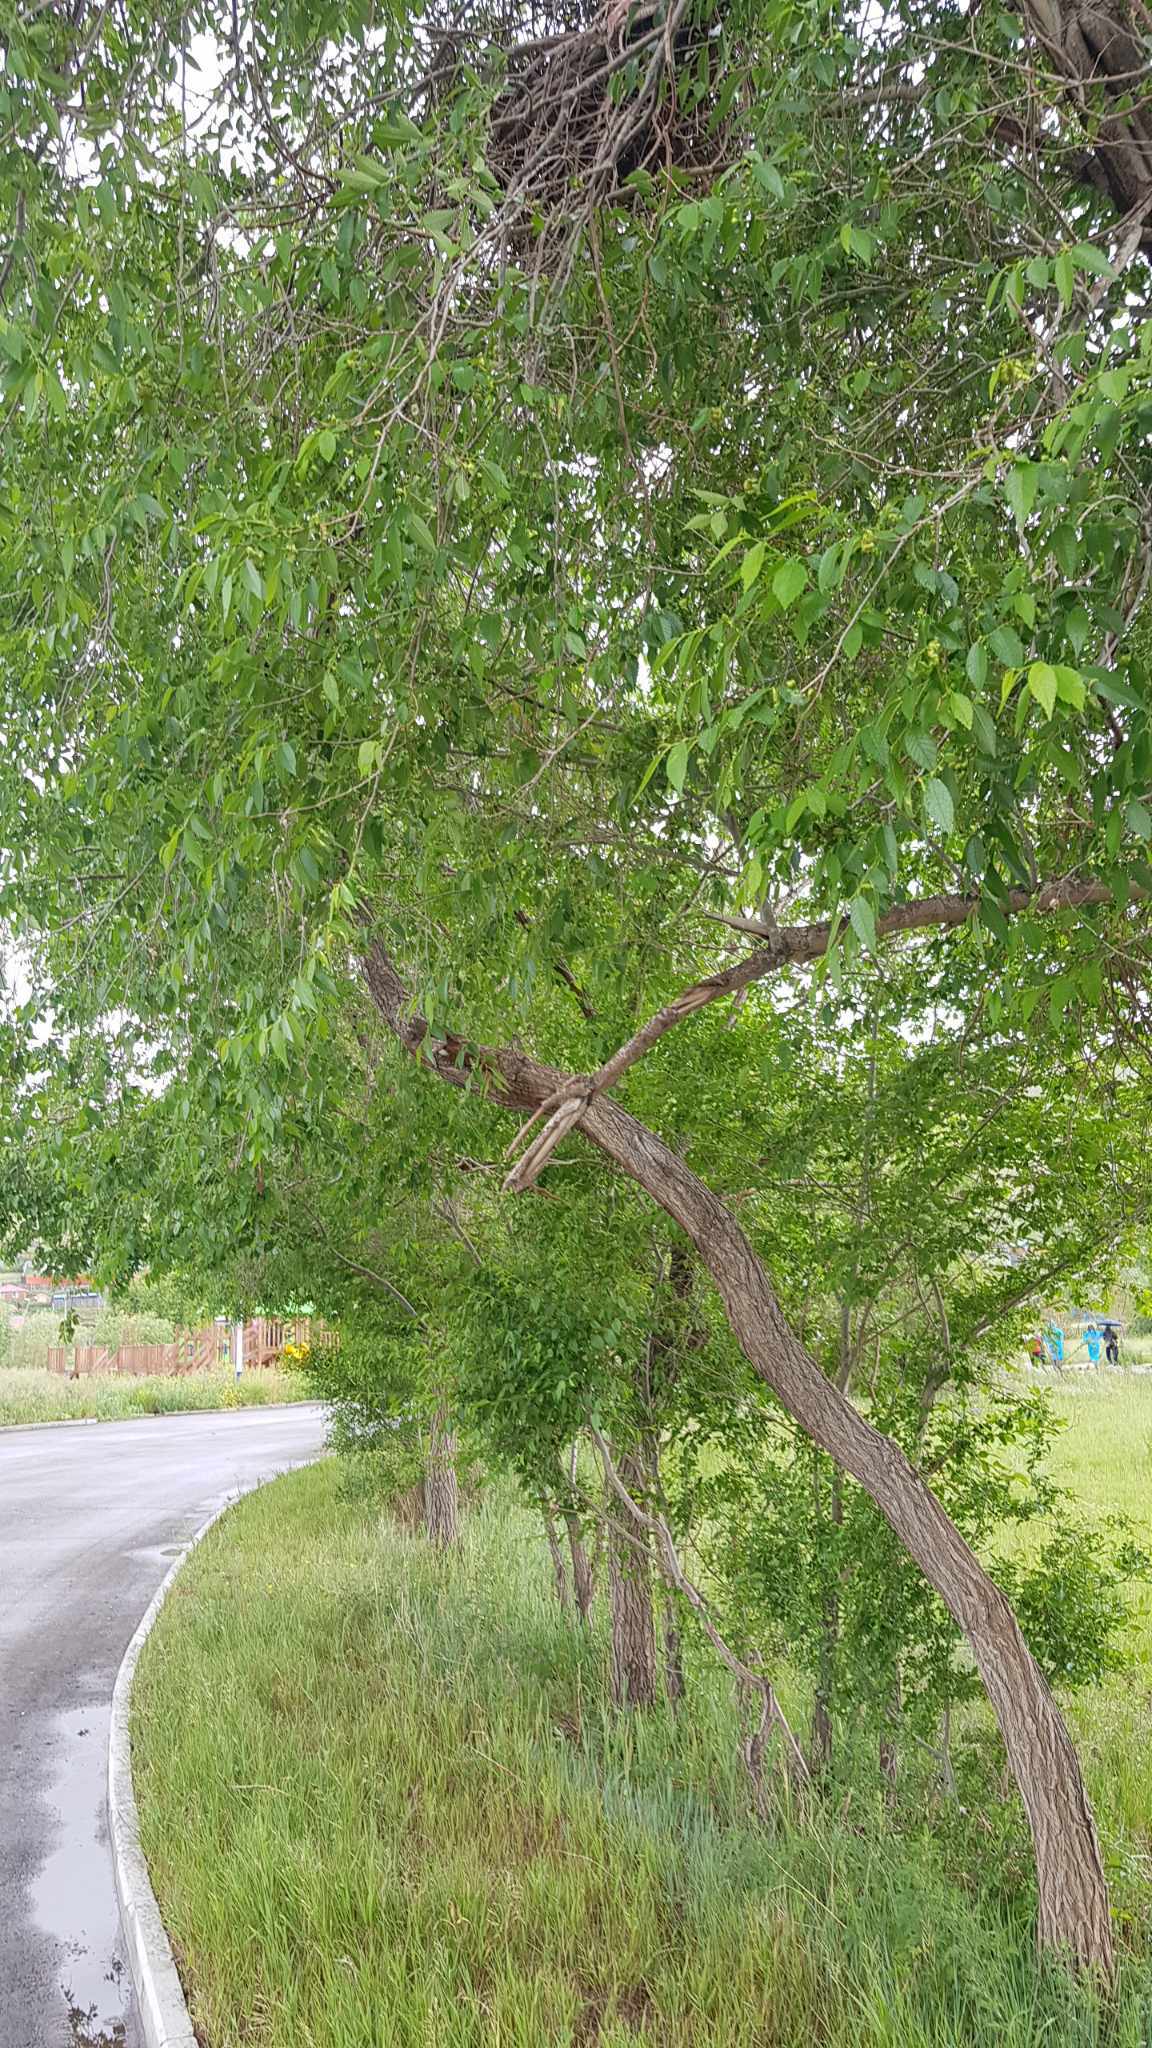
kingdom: Plantae
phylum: Tracheophyta
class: Magnoliopsida
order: Rosales
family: Ulmaceae
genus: Ulmus
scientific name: Ulmus pumila
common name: Siberian elm
